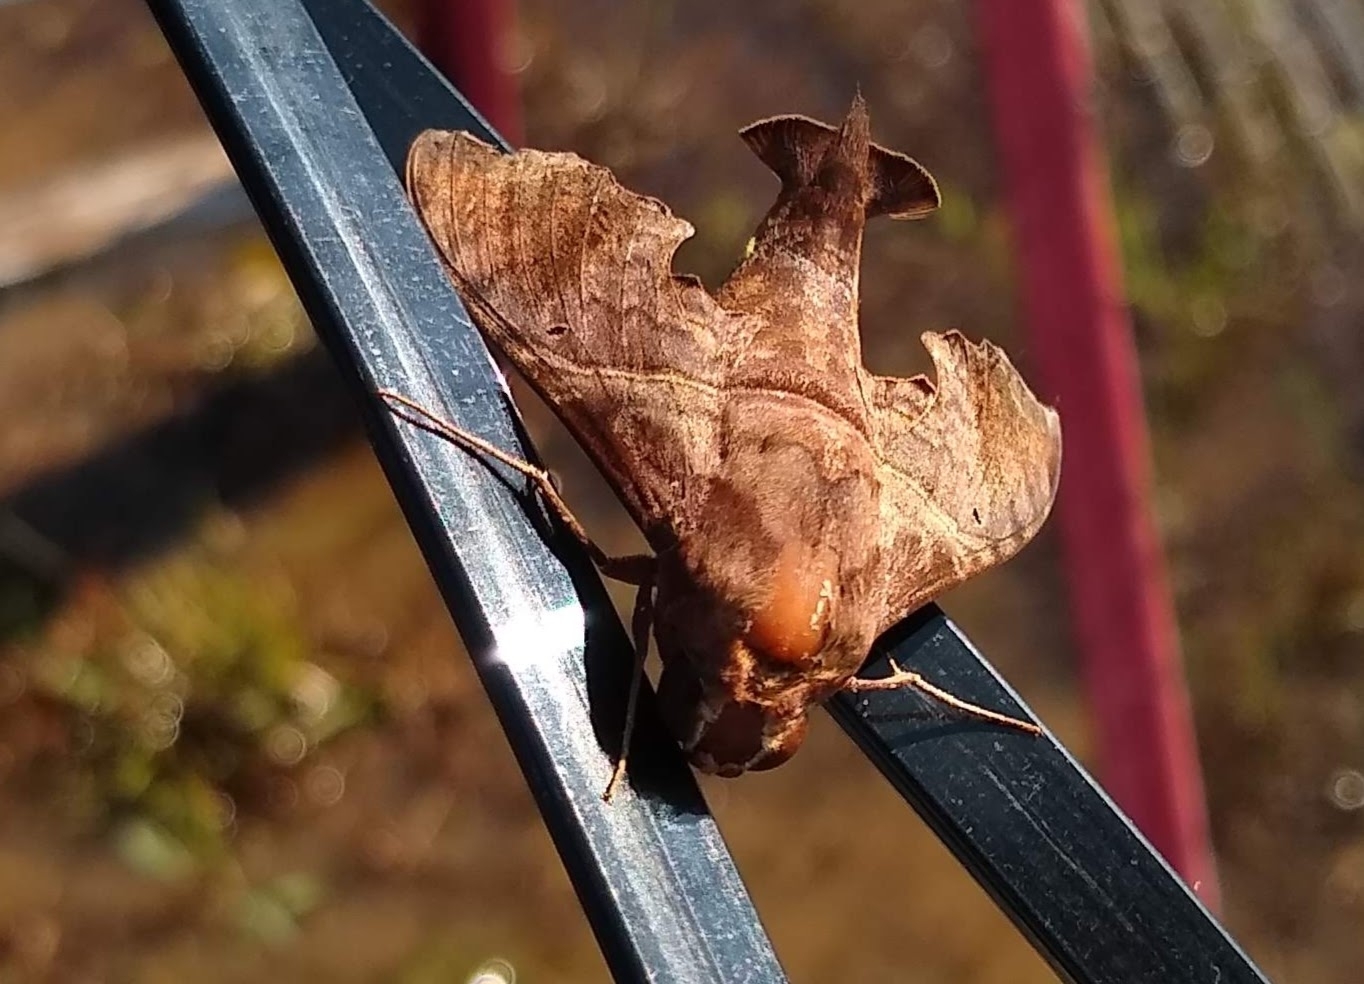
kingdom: Animalia
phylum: Arthropoda
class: Insecta
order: Lepidoptera
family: Sphingidae
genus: Enyo
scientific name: Enyo lugubris
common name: Mournful sphinx
